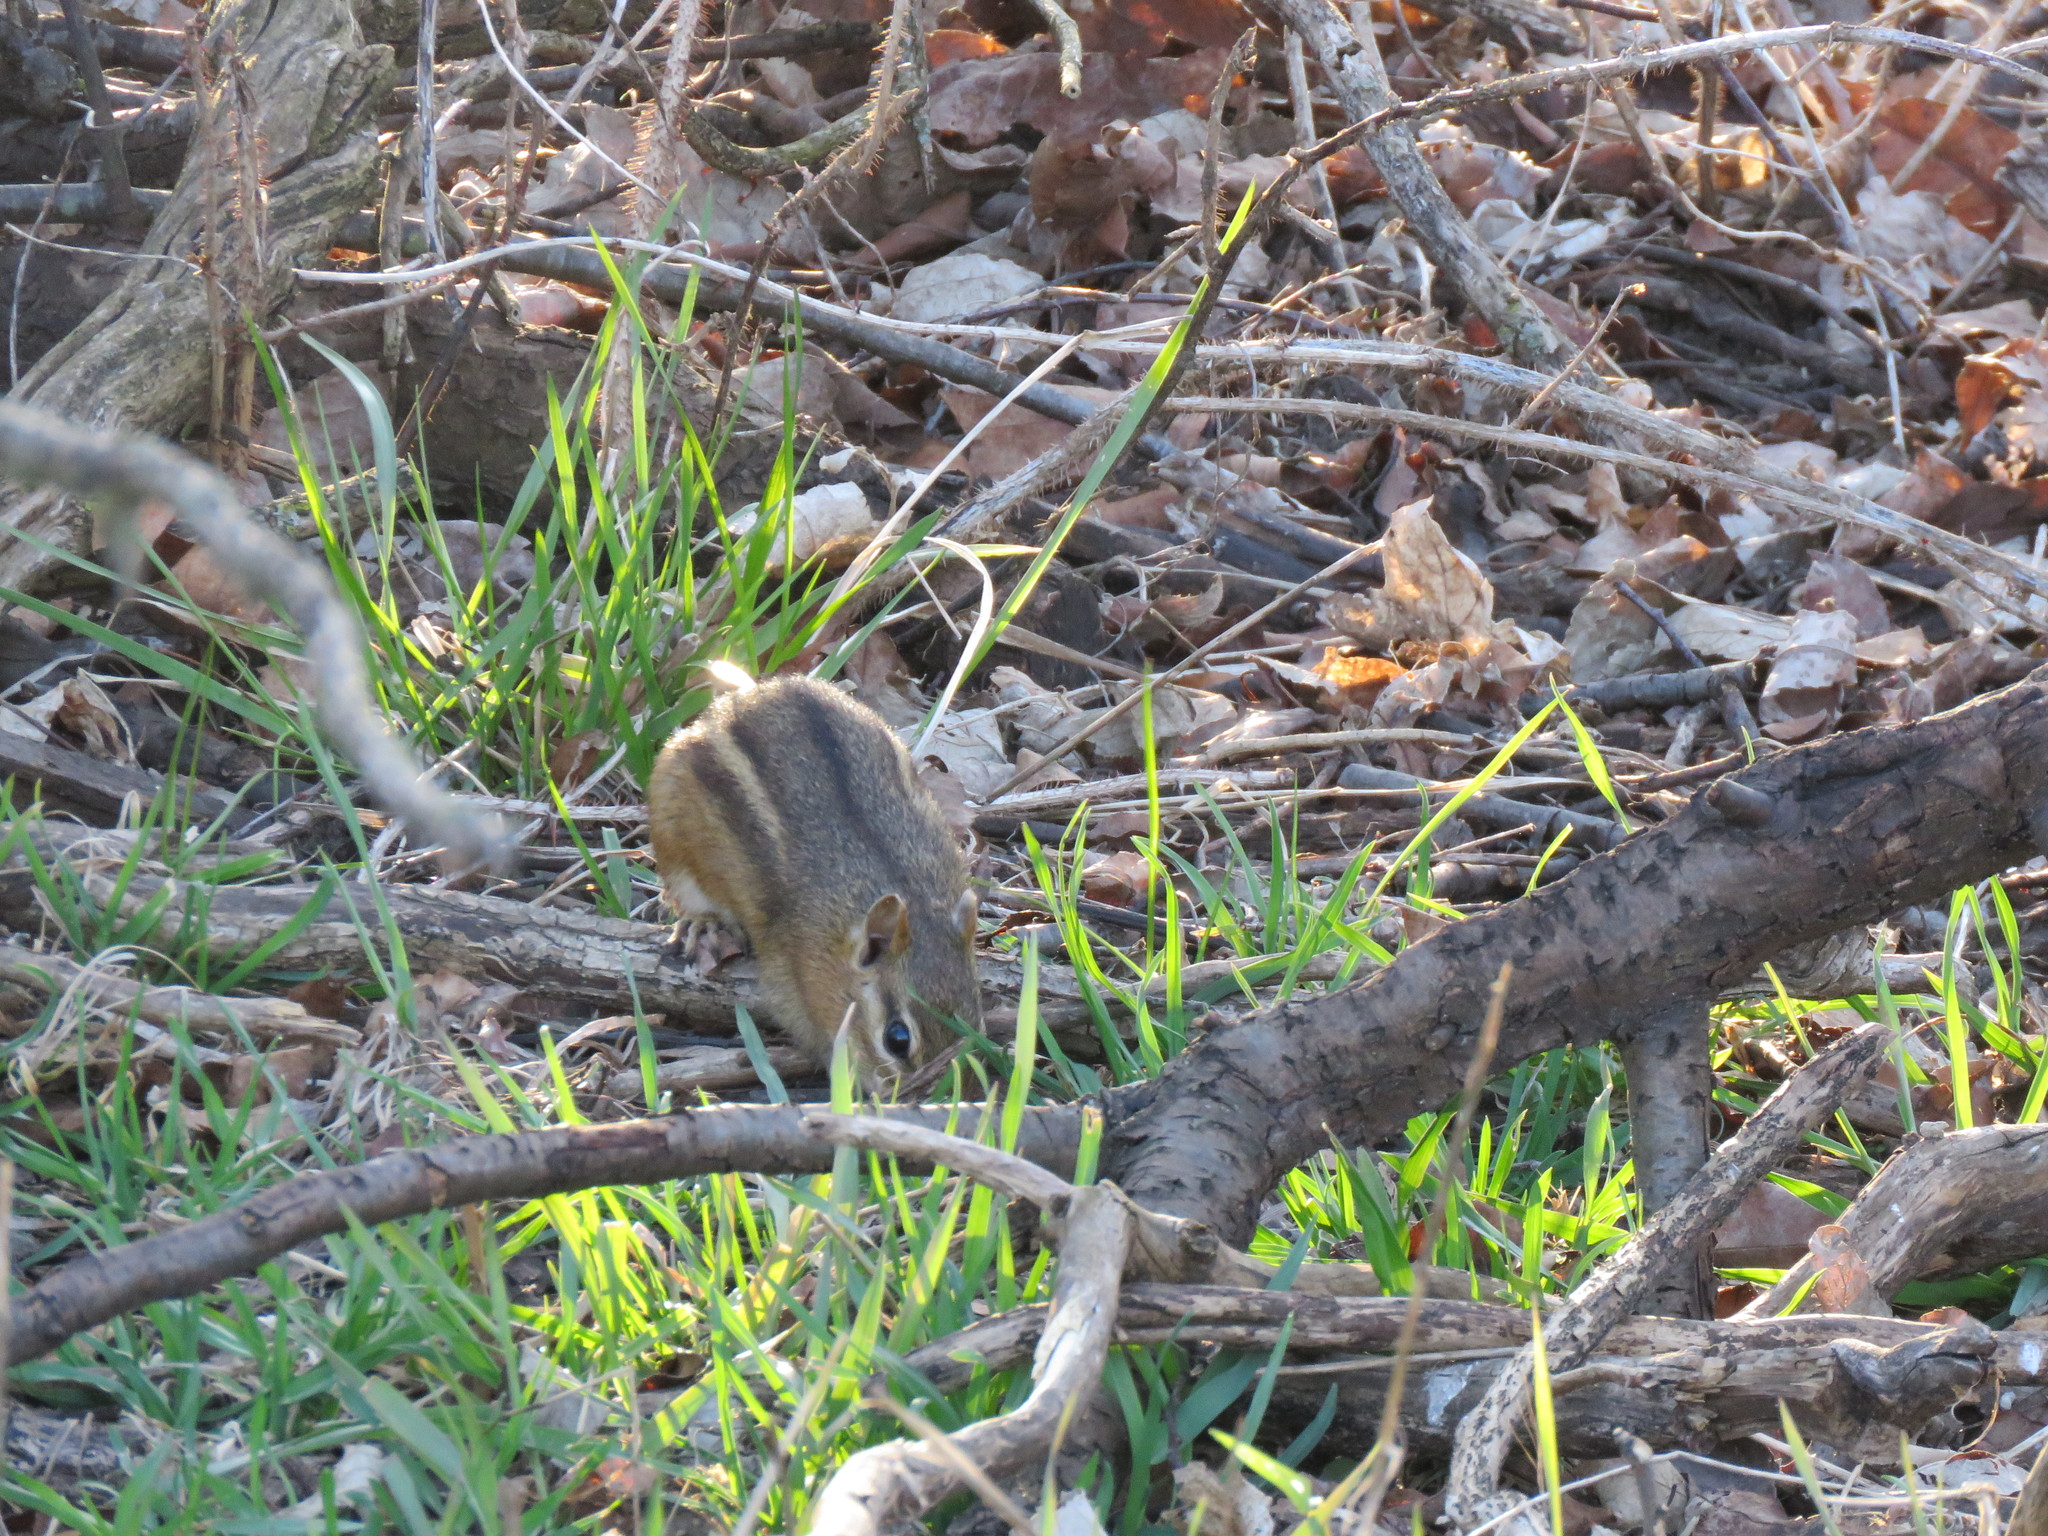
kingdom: Animalia
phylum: Chordata
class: Mammalia
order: Rodentia
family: Sciuridae
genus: Tamias
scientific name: Tamias striatus
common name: Eastern chipmunk
